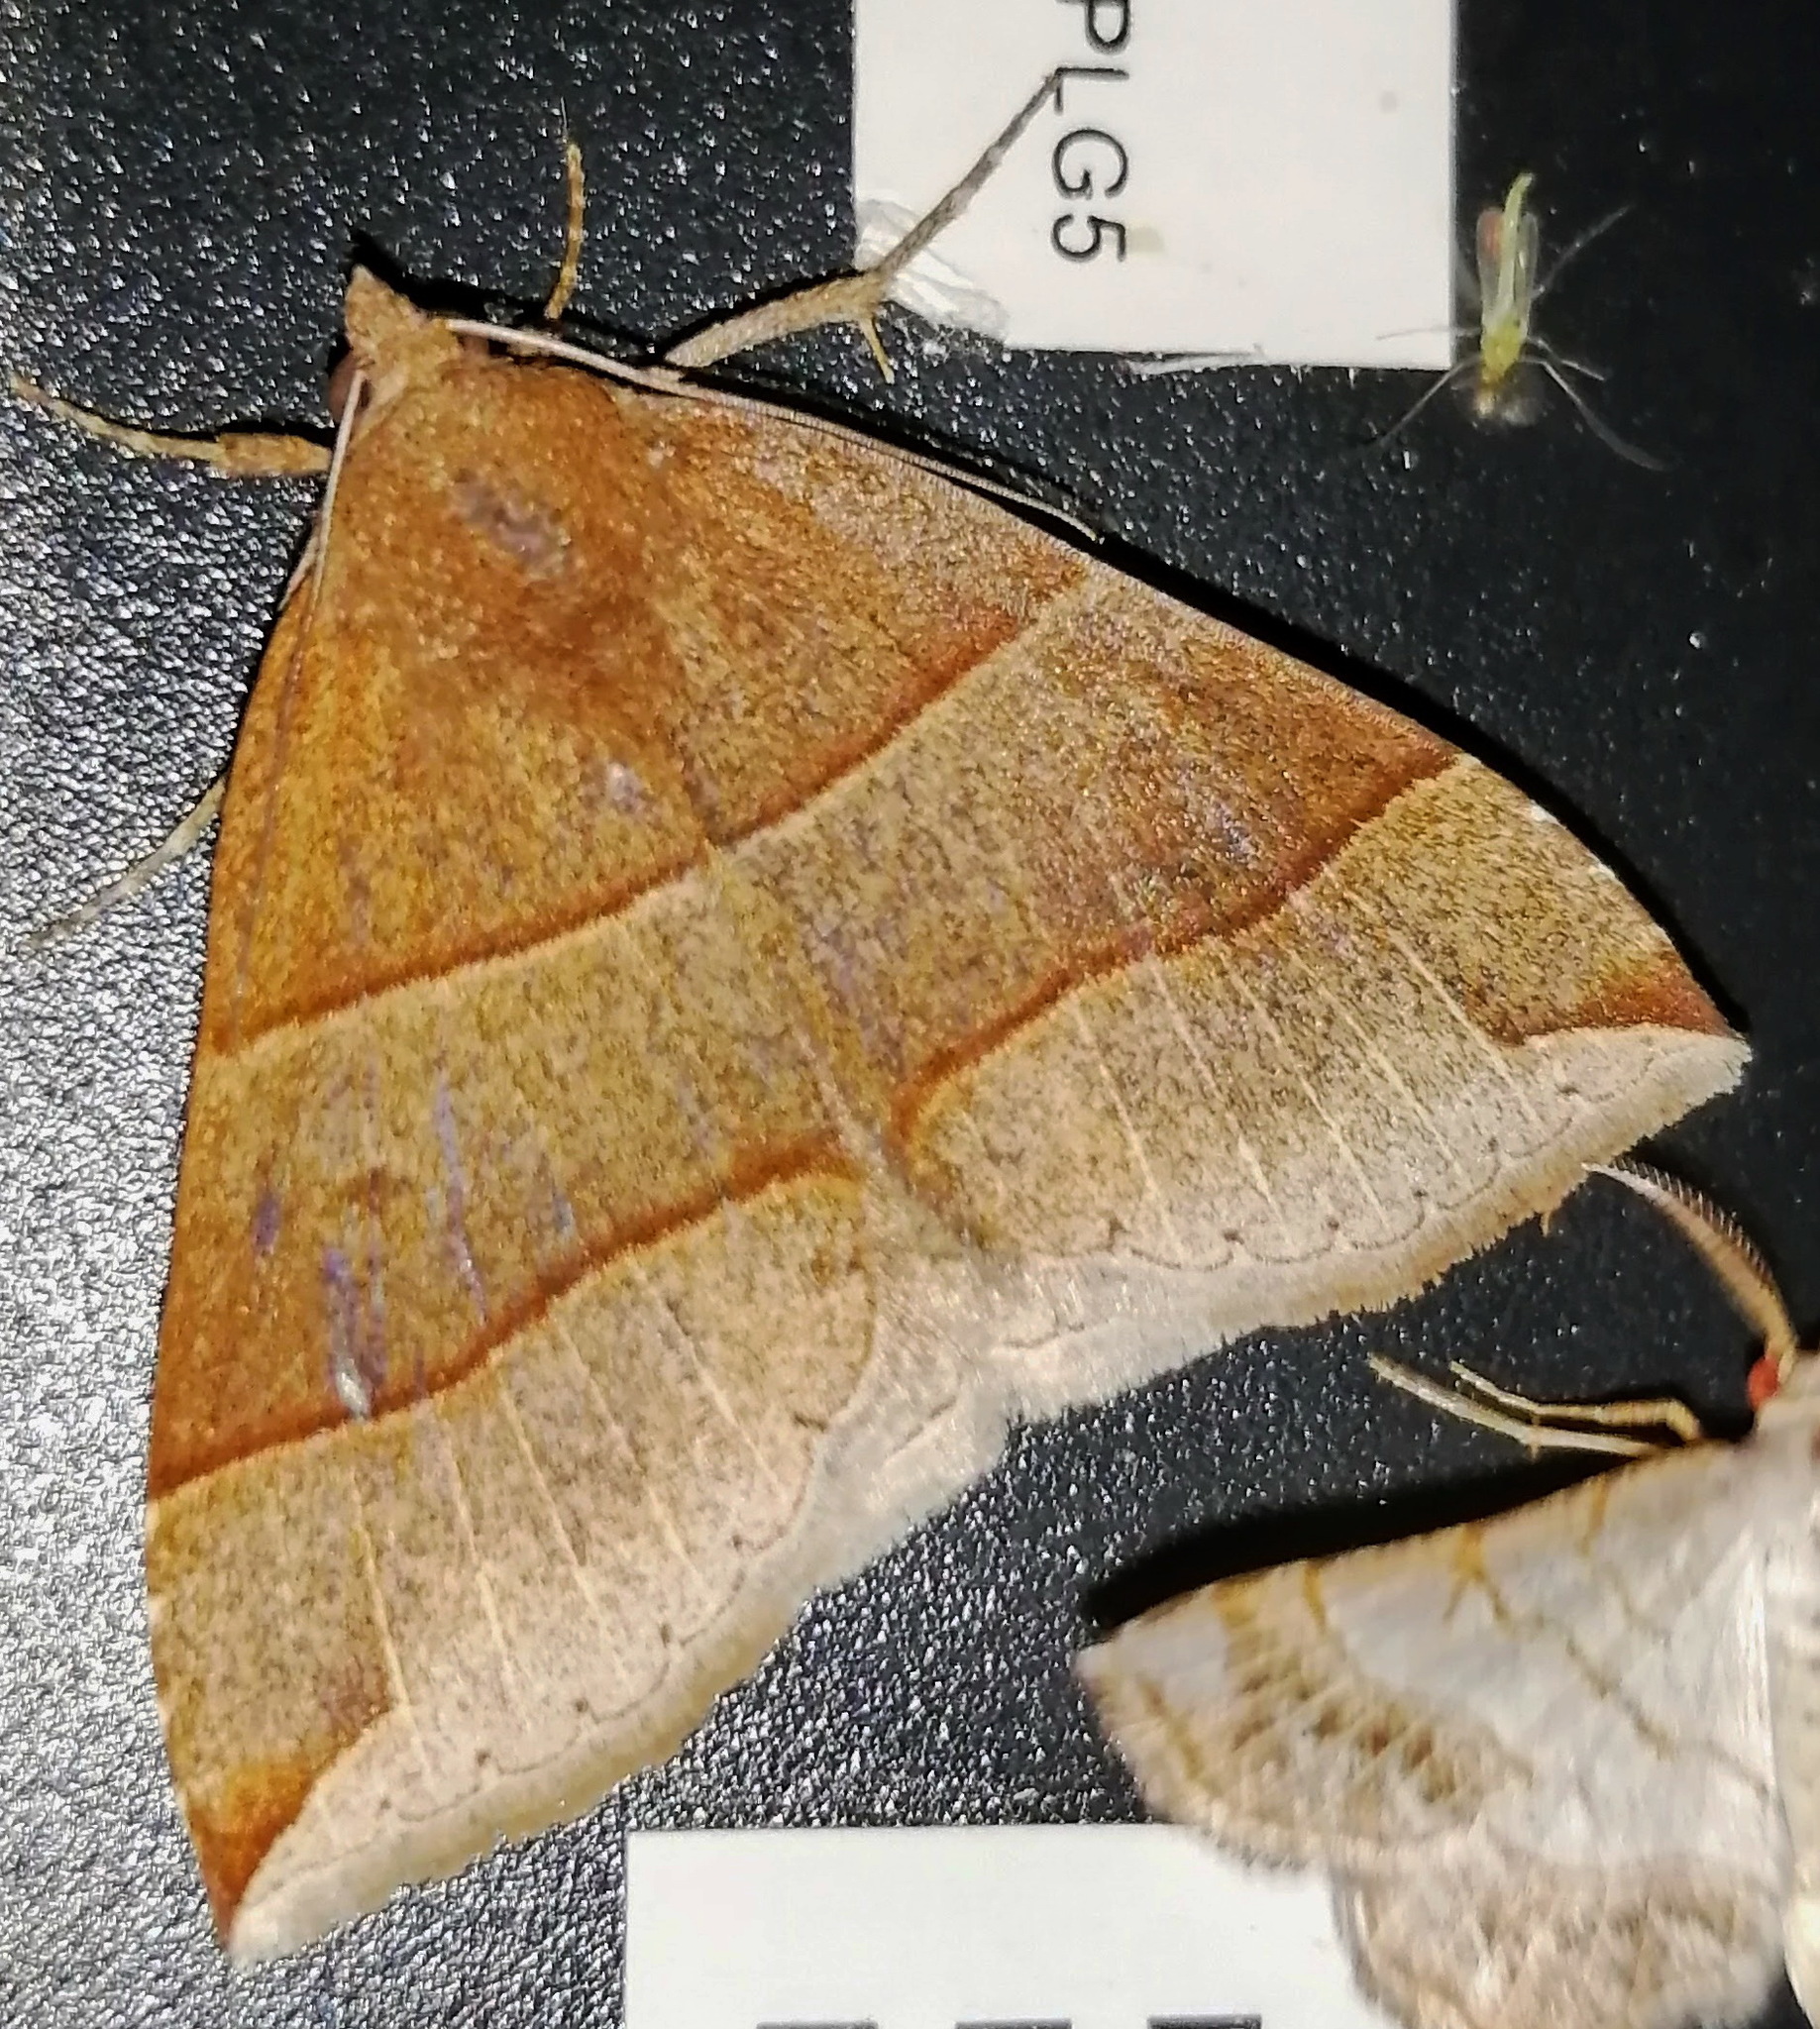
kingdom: Animalia
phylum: Arthropoda
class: Insecta
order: Lepidoptera
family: Erebidae
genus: Parallelia
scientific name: Parallelia bistriaris
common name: Maple looper moth
